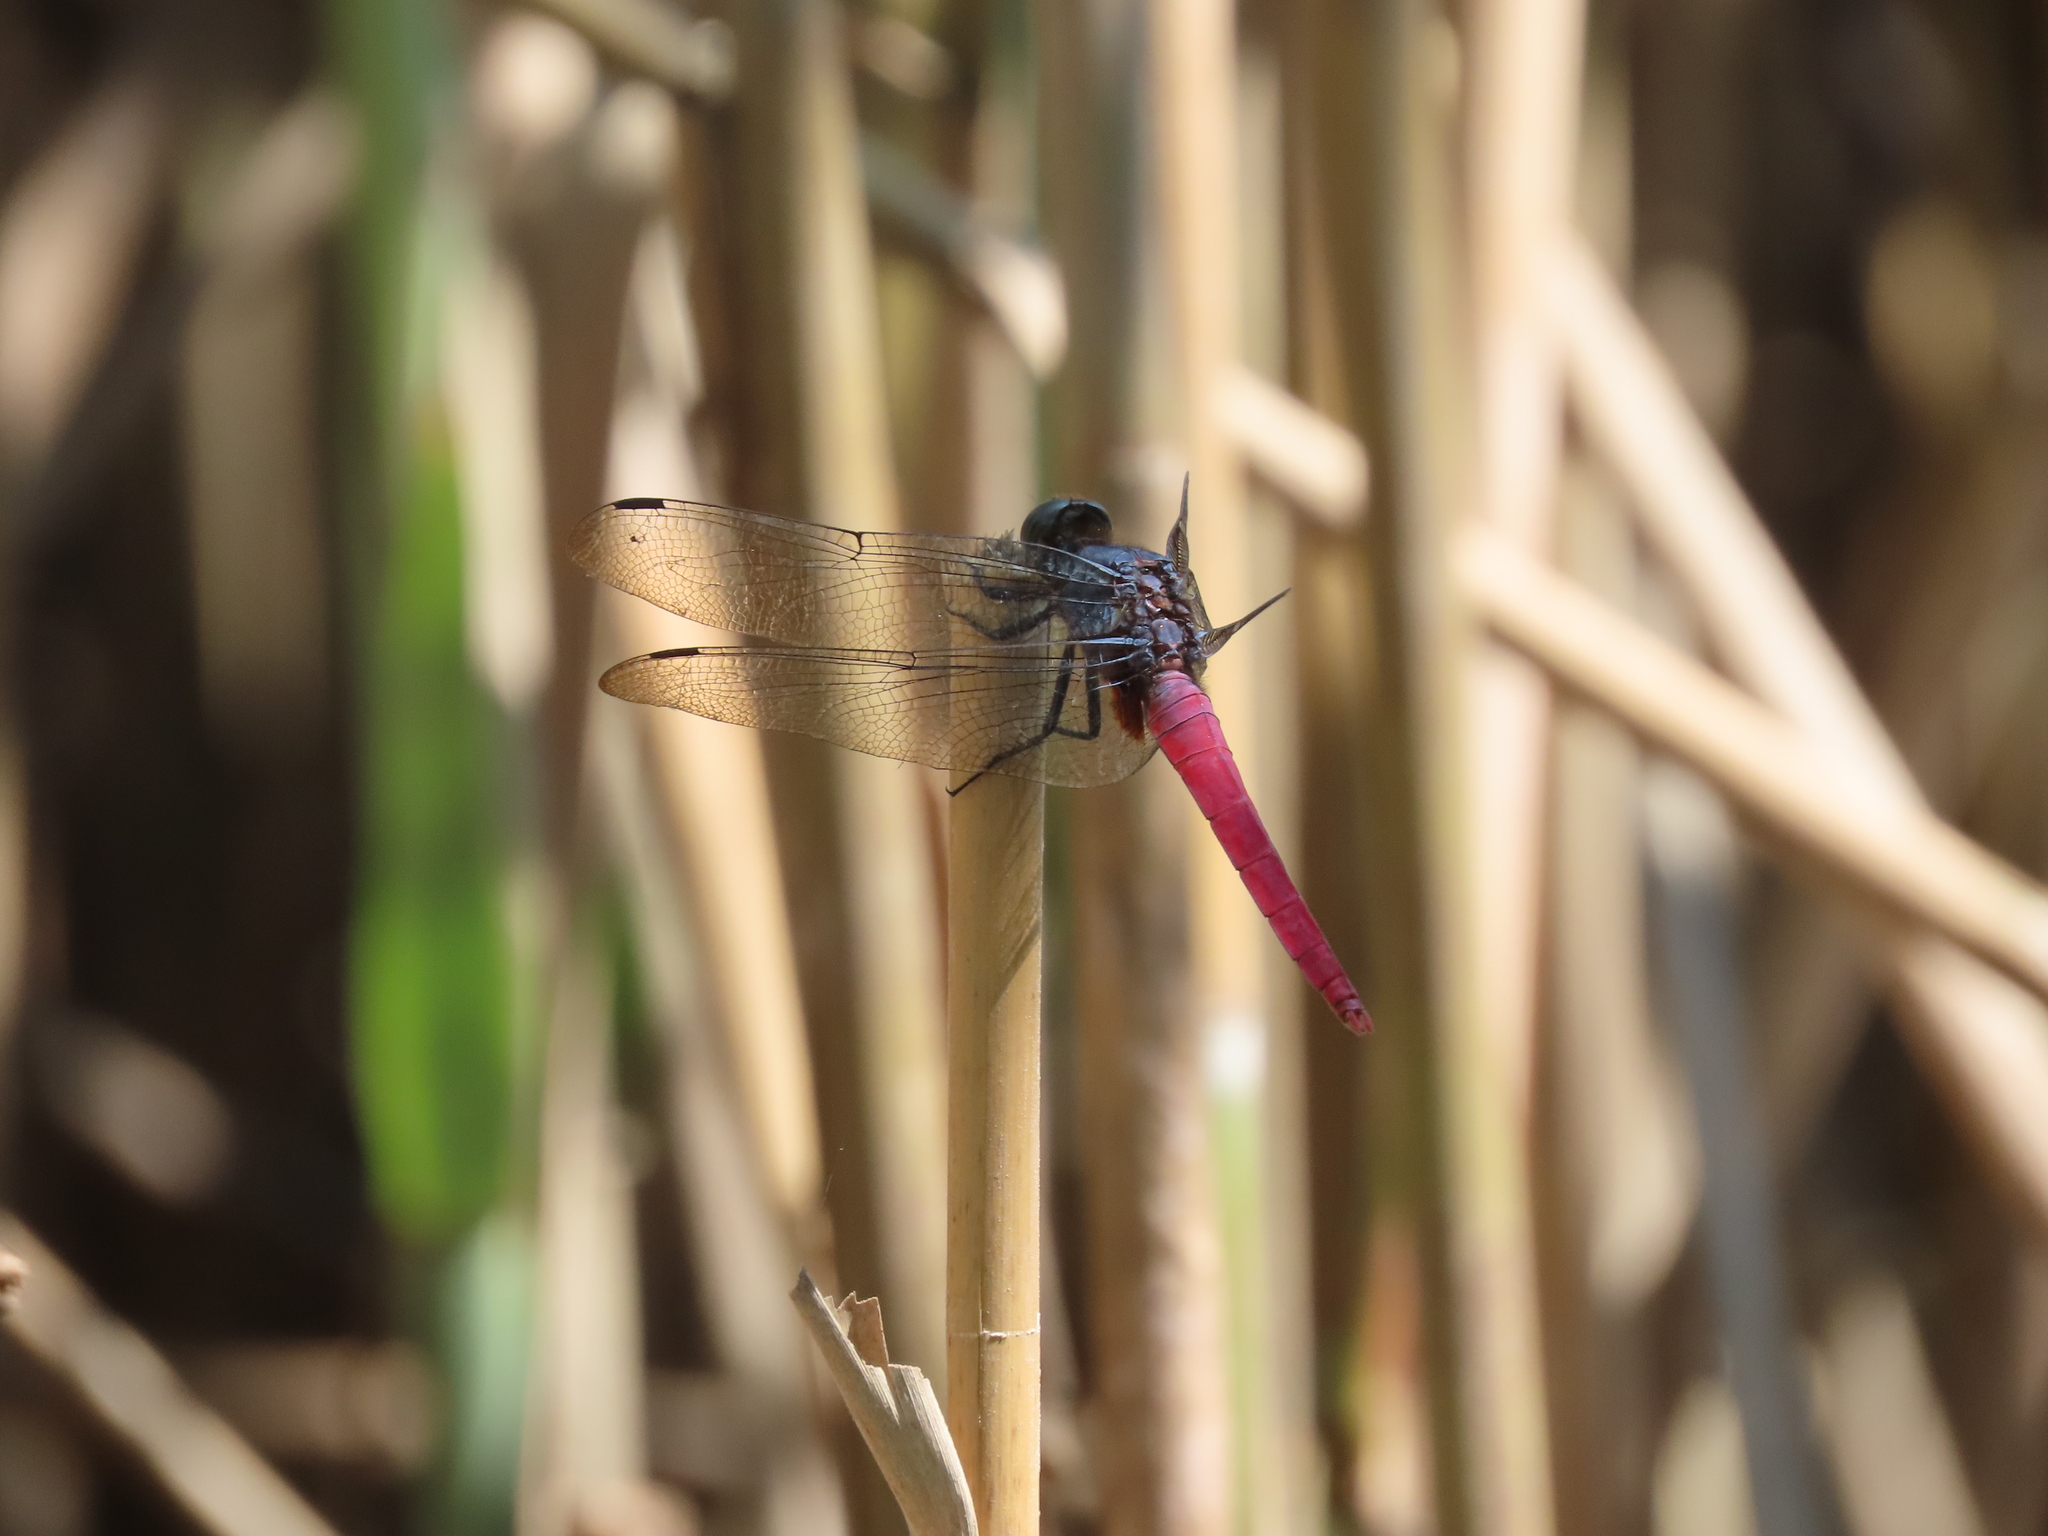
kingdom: Animalia
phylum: Arthropoda
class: Insecta
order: Odonata
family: Libellulidae
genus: Orthetrum
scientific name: Orthetrum pruinosum
